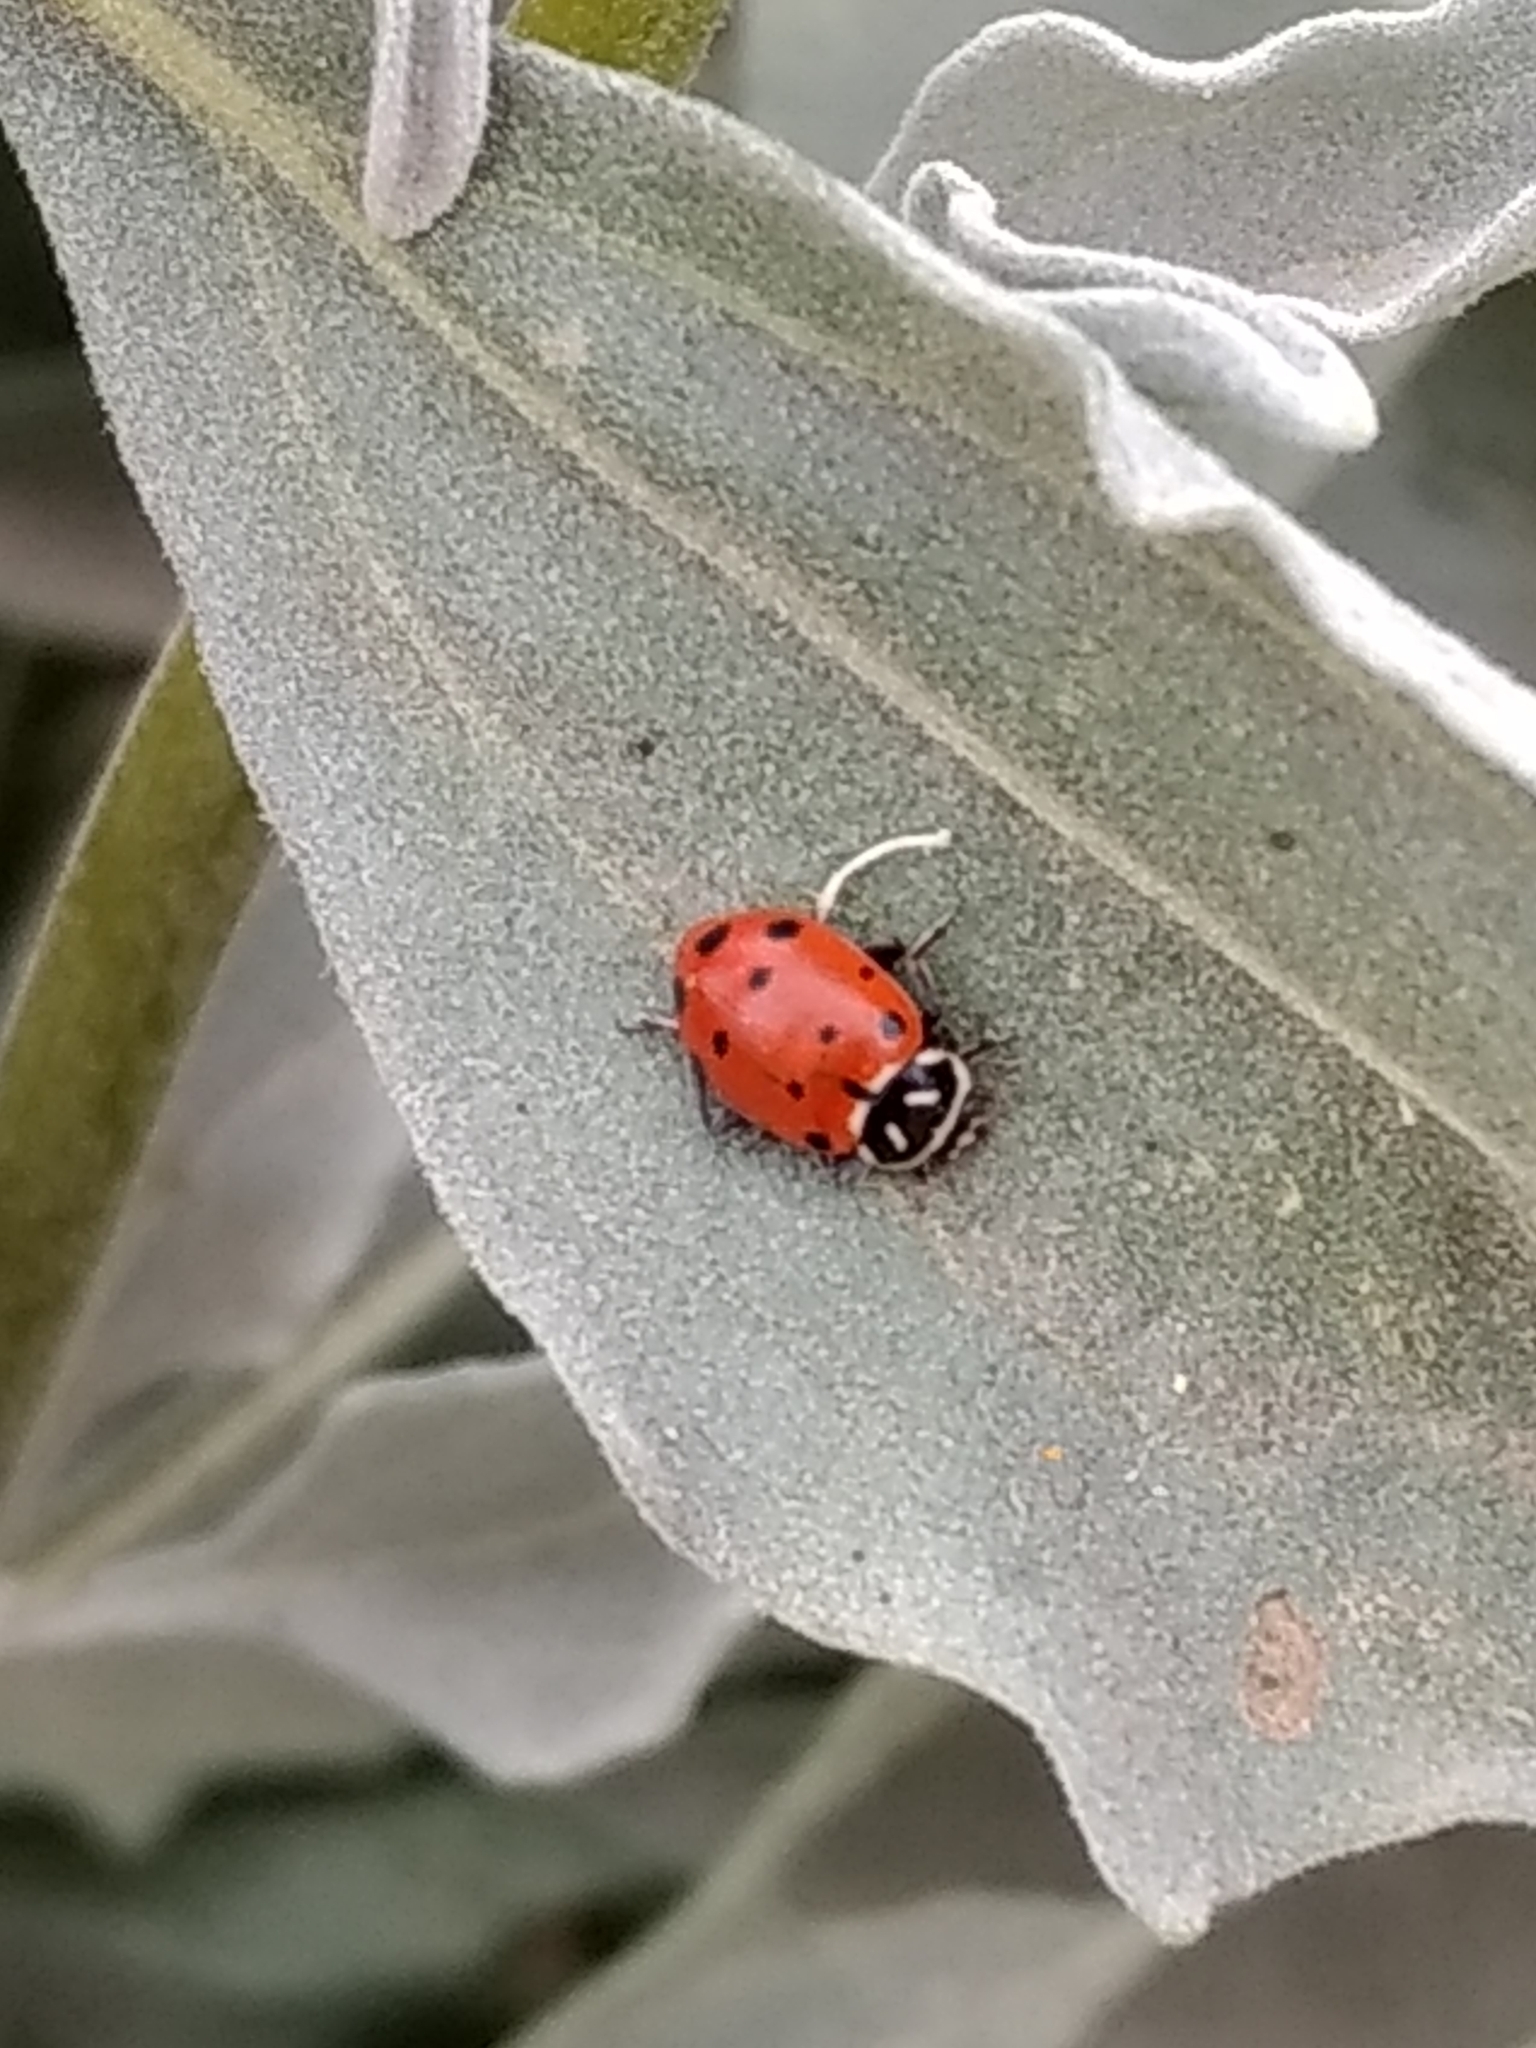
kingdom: Animalia
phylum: Arthropoda
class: Insecta
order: Coleoptera
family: Coccinellidae
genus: Hippodamia
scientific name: Hippodamia convergens
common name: Convergent lady beetle
